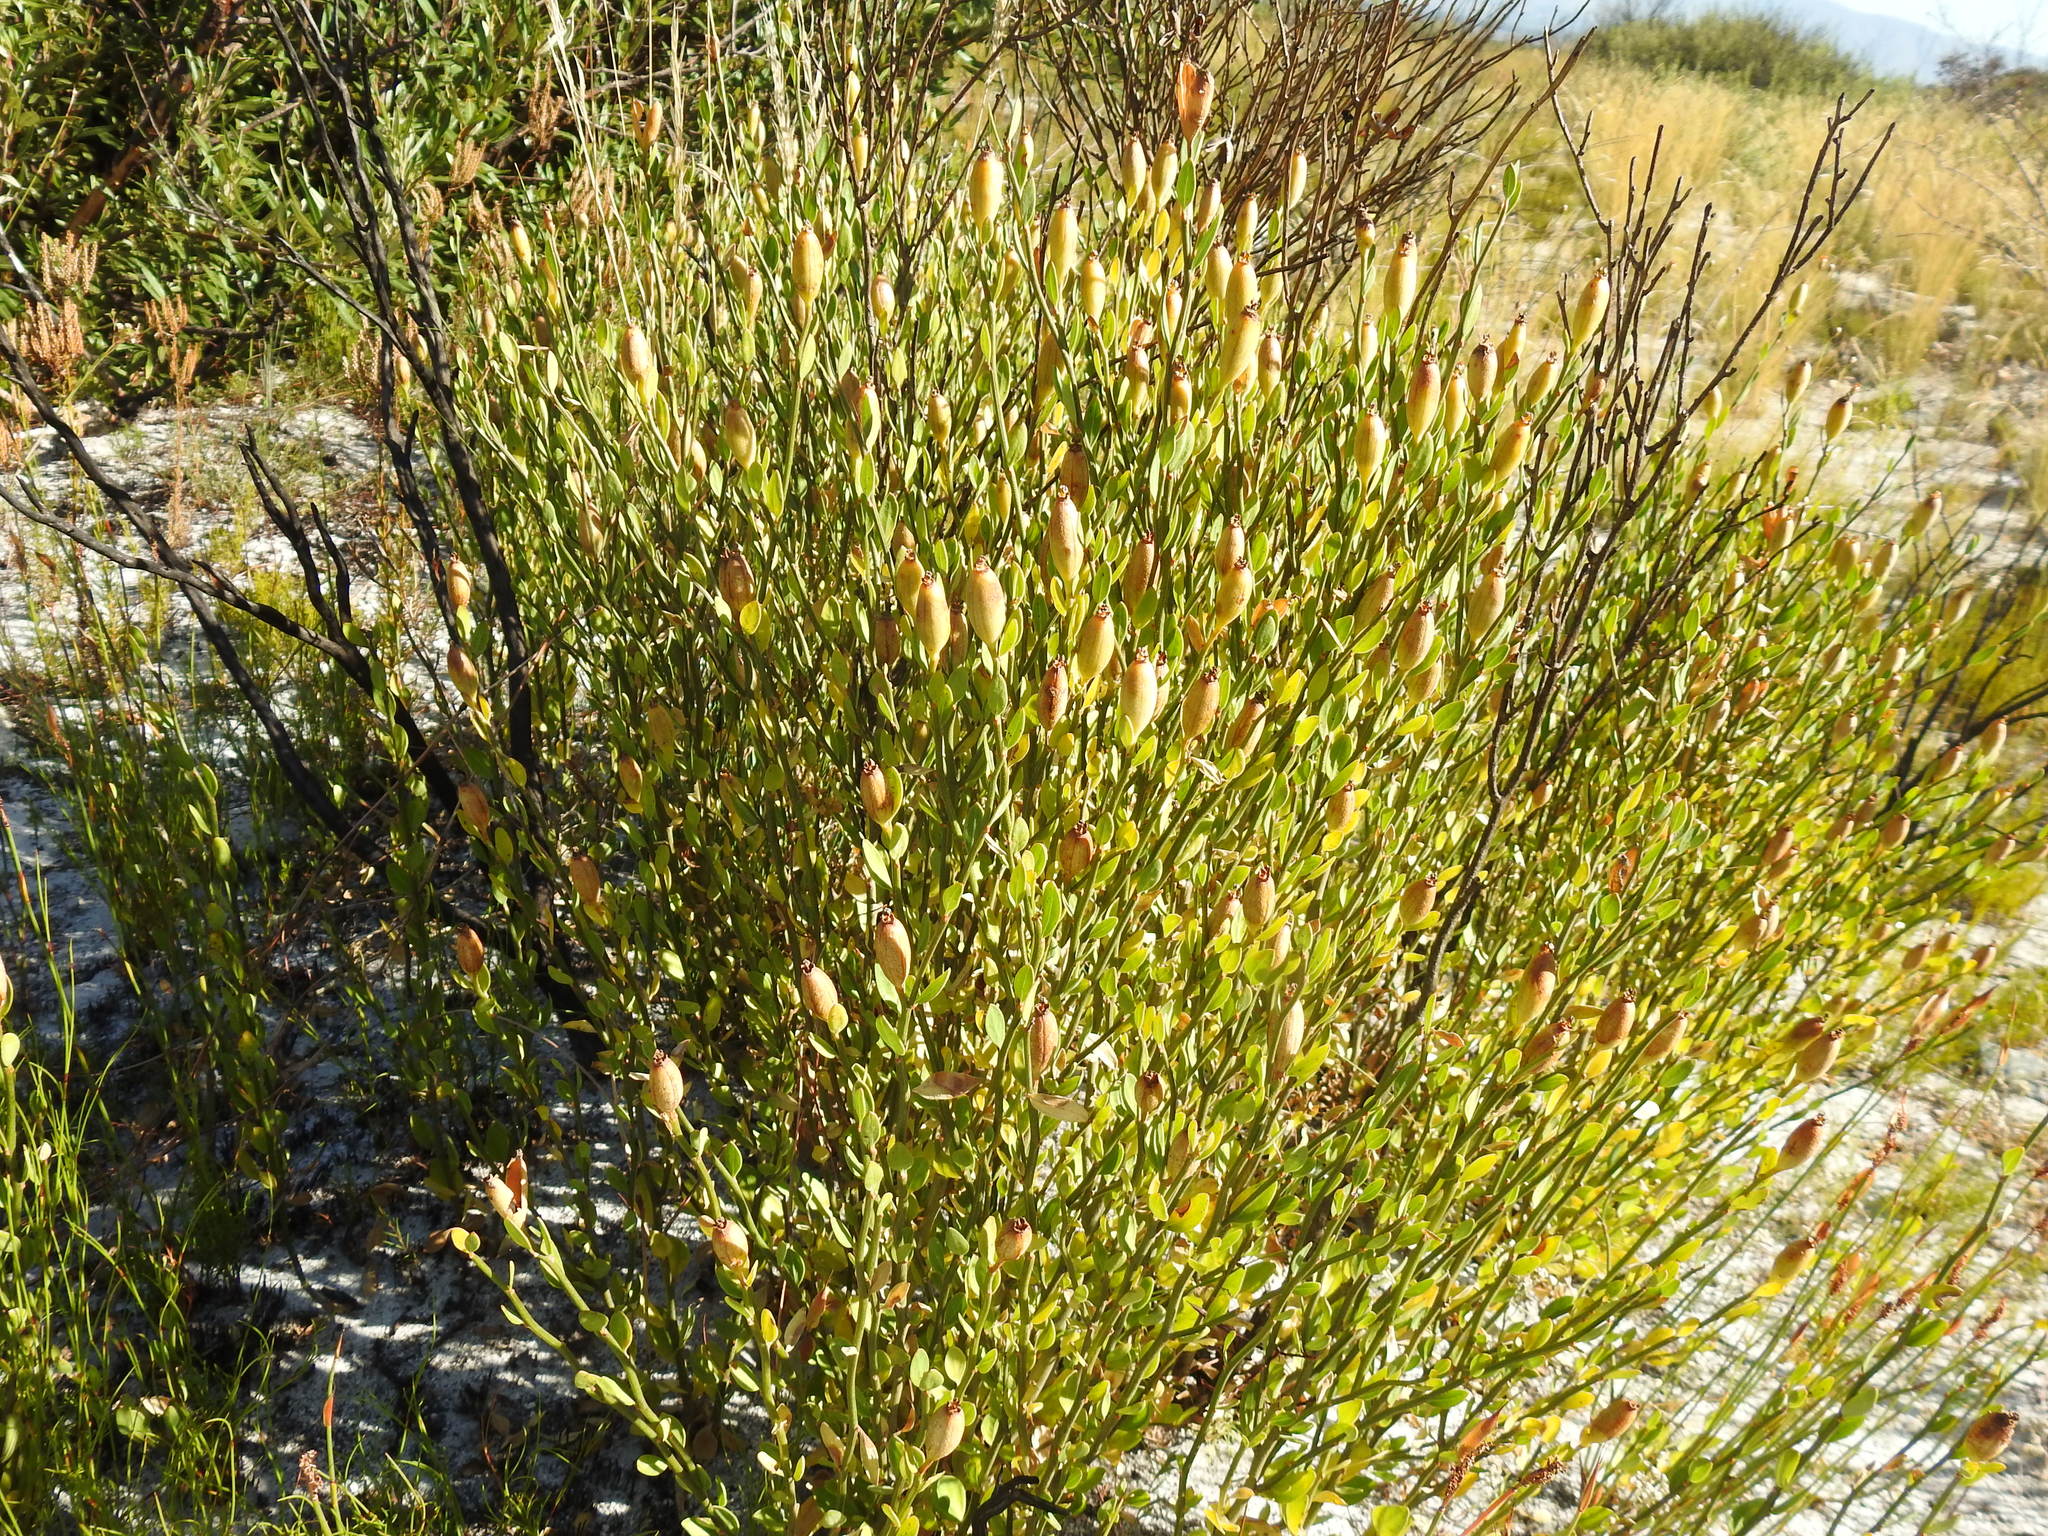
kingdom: Plantae
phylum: Tracheophyta
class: Magnoliopsida
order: Solanales
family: Montiniaceae
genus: Montinia
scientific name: Montinia caryophyllacea
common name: Wild clove-bush
